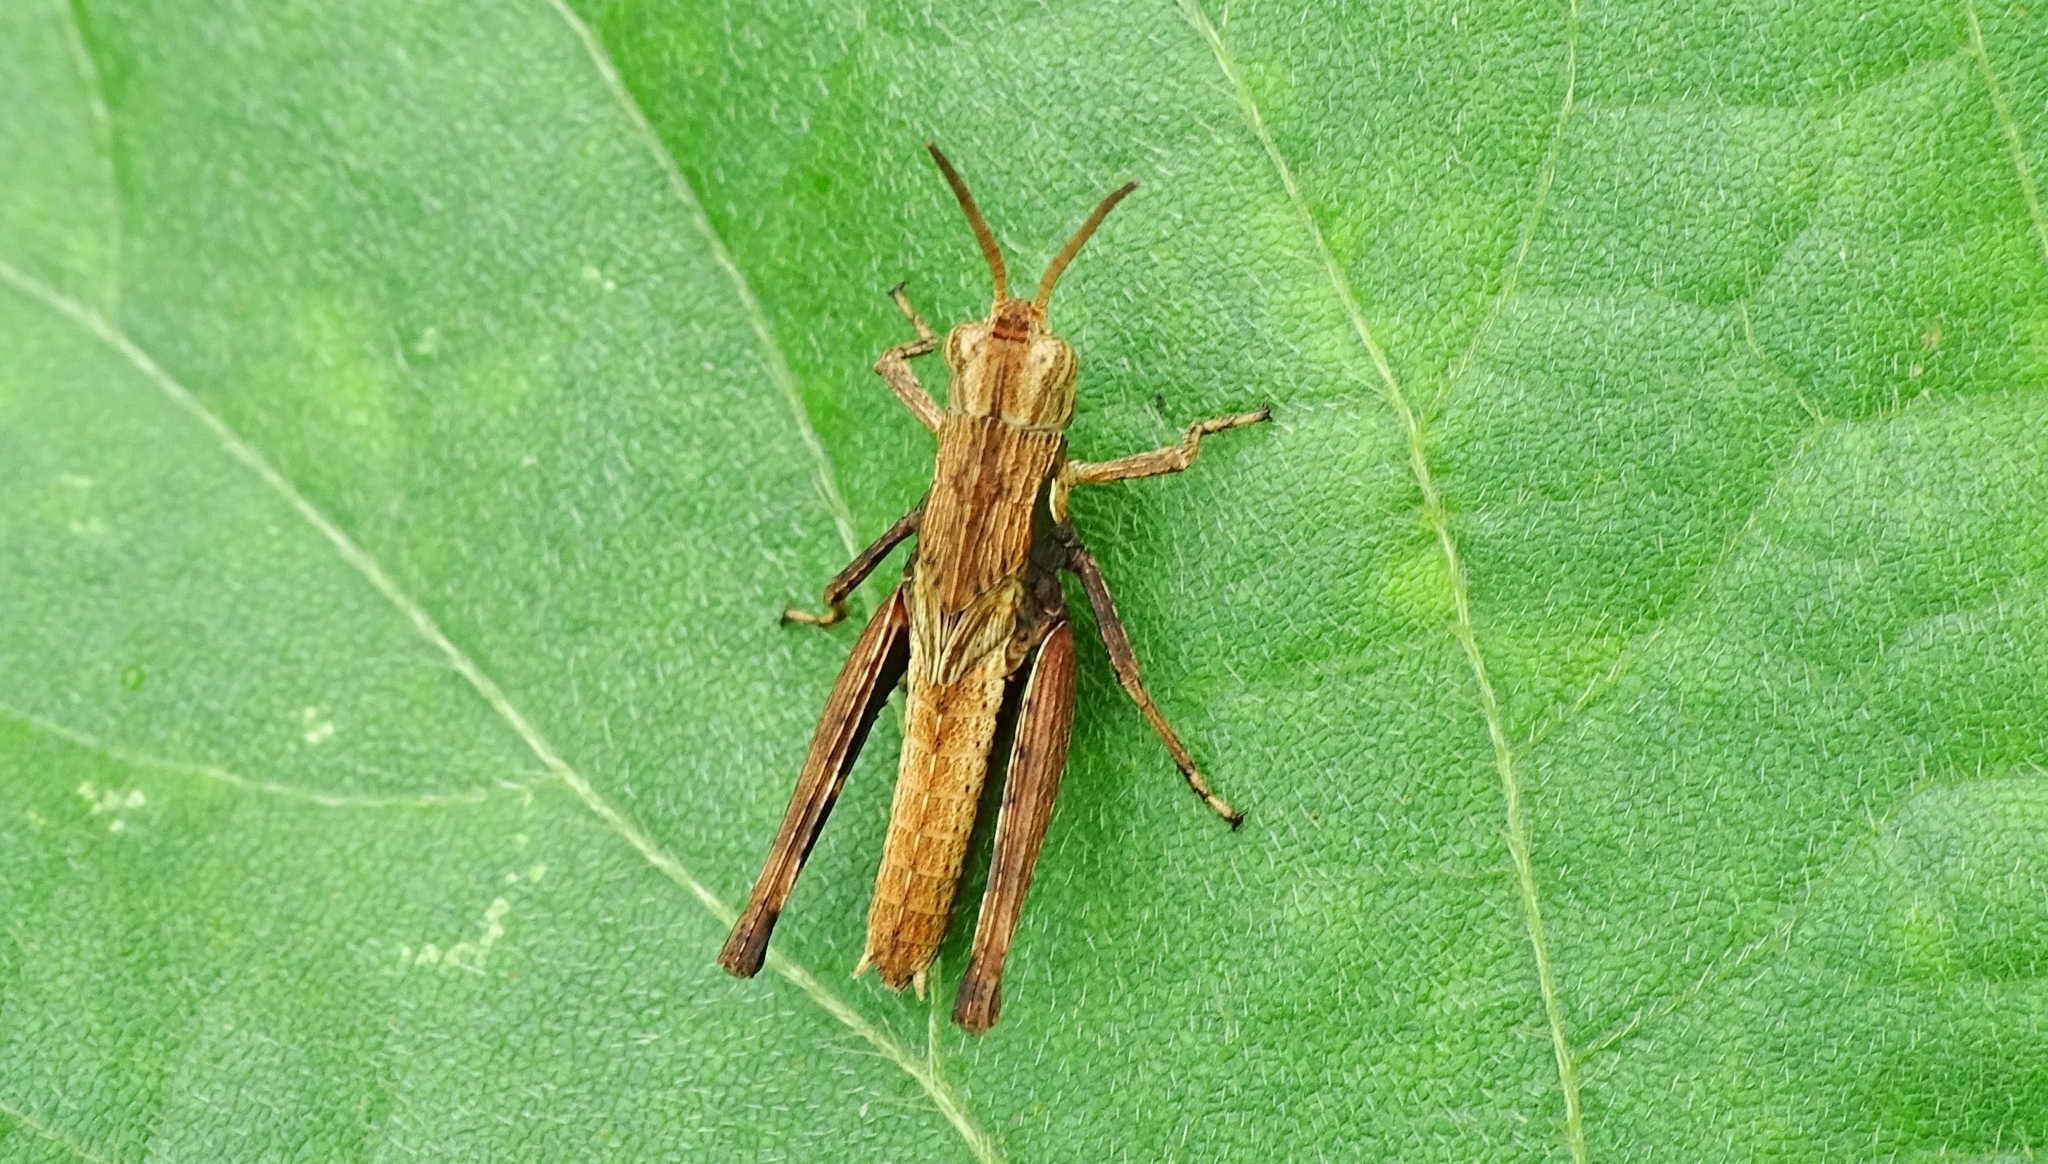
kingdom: Animalia
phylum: Arthropoda
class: Insecta
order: Orthoptera
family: Acrididae
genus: Morphacris
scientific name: Morphacris fasciata
